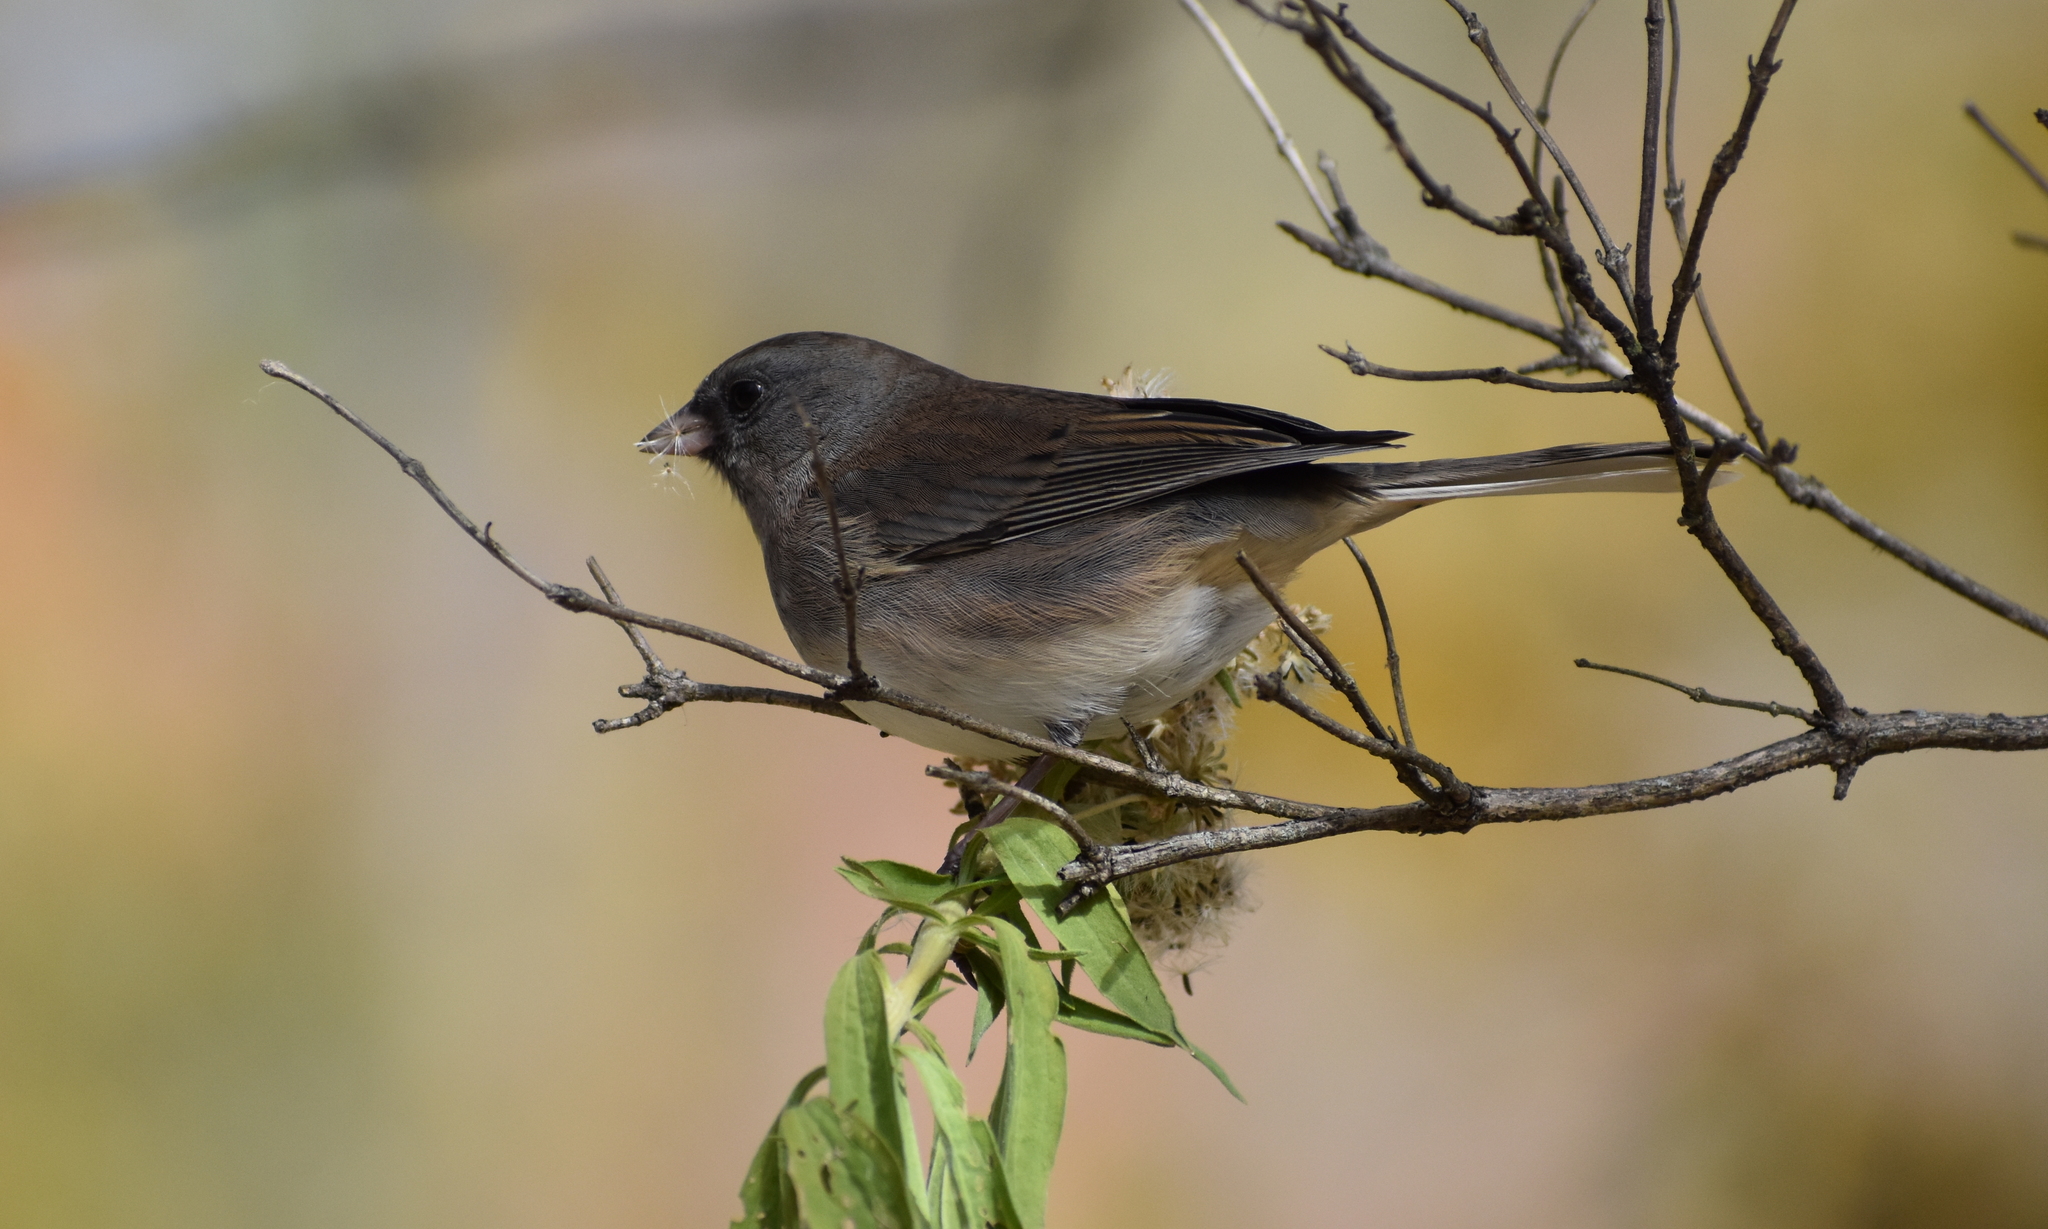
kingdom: Animalia
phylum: Chordata
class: Aves
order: Passeriformes
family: Passerellidae
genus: Junco
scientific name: Junco hyemalis
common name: Dark-eyed junco
